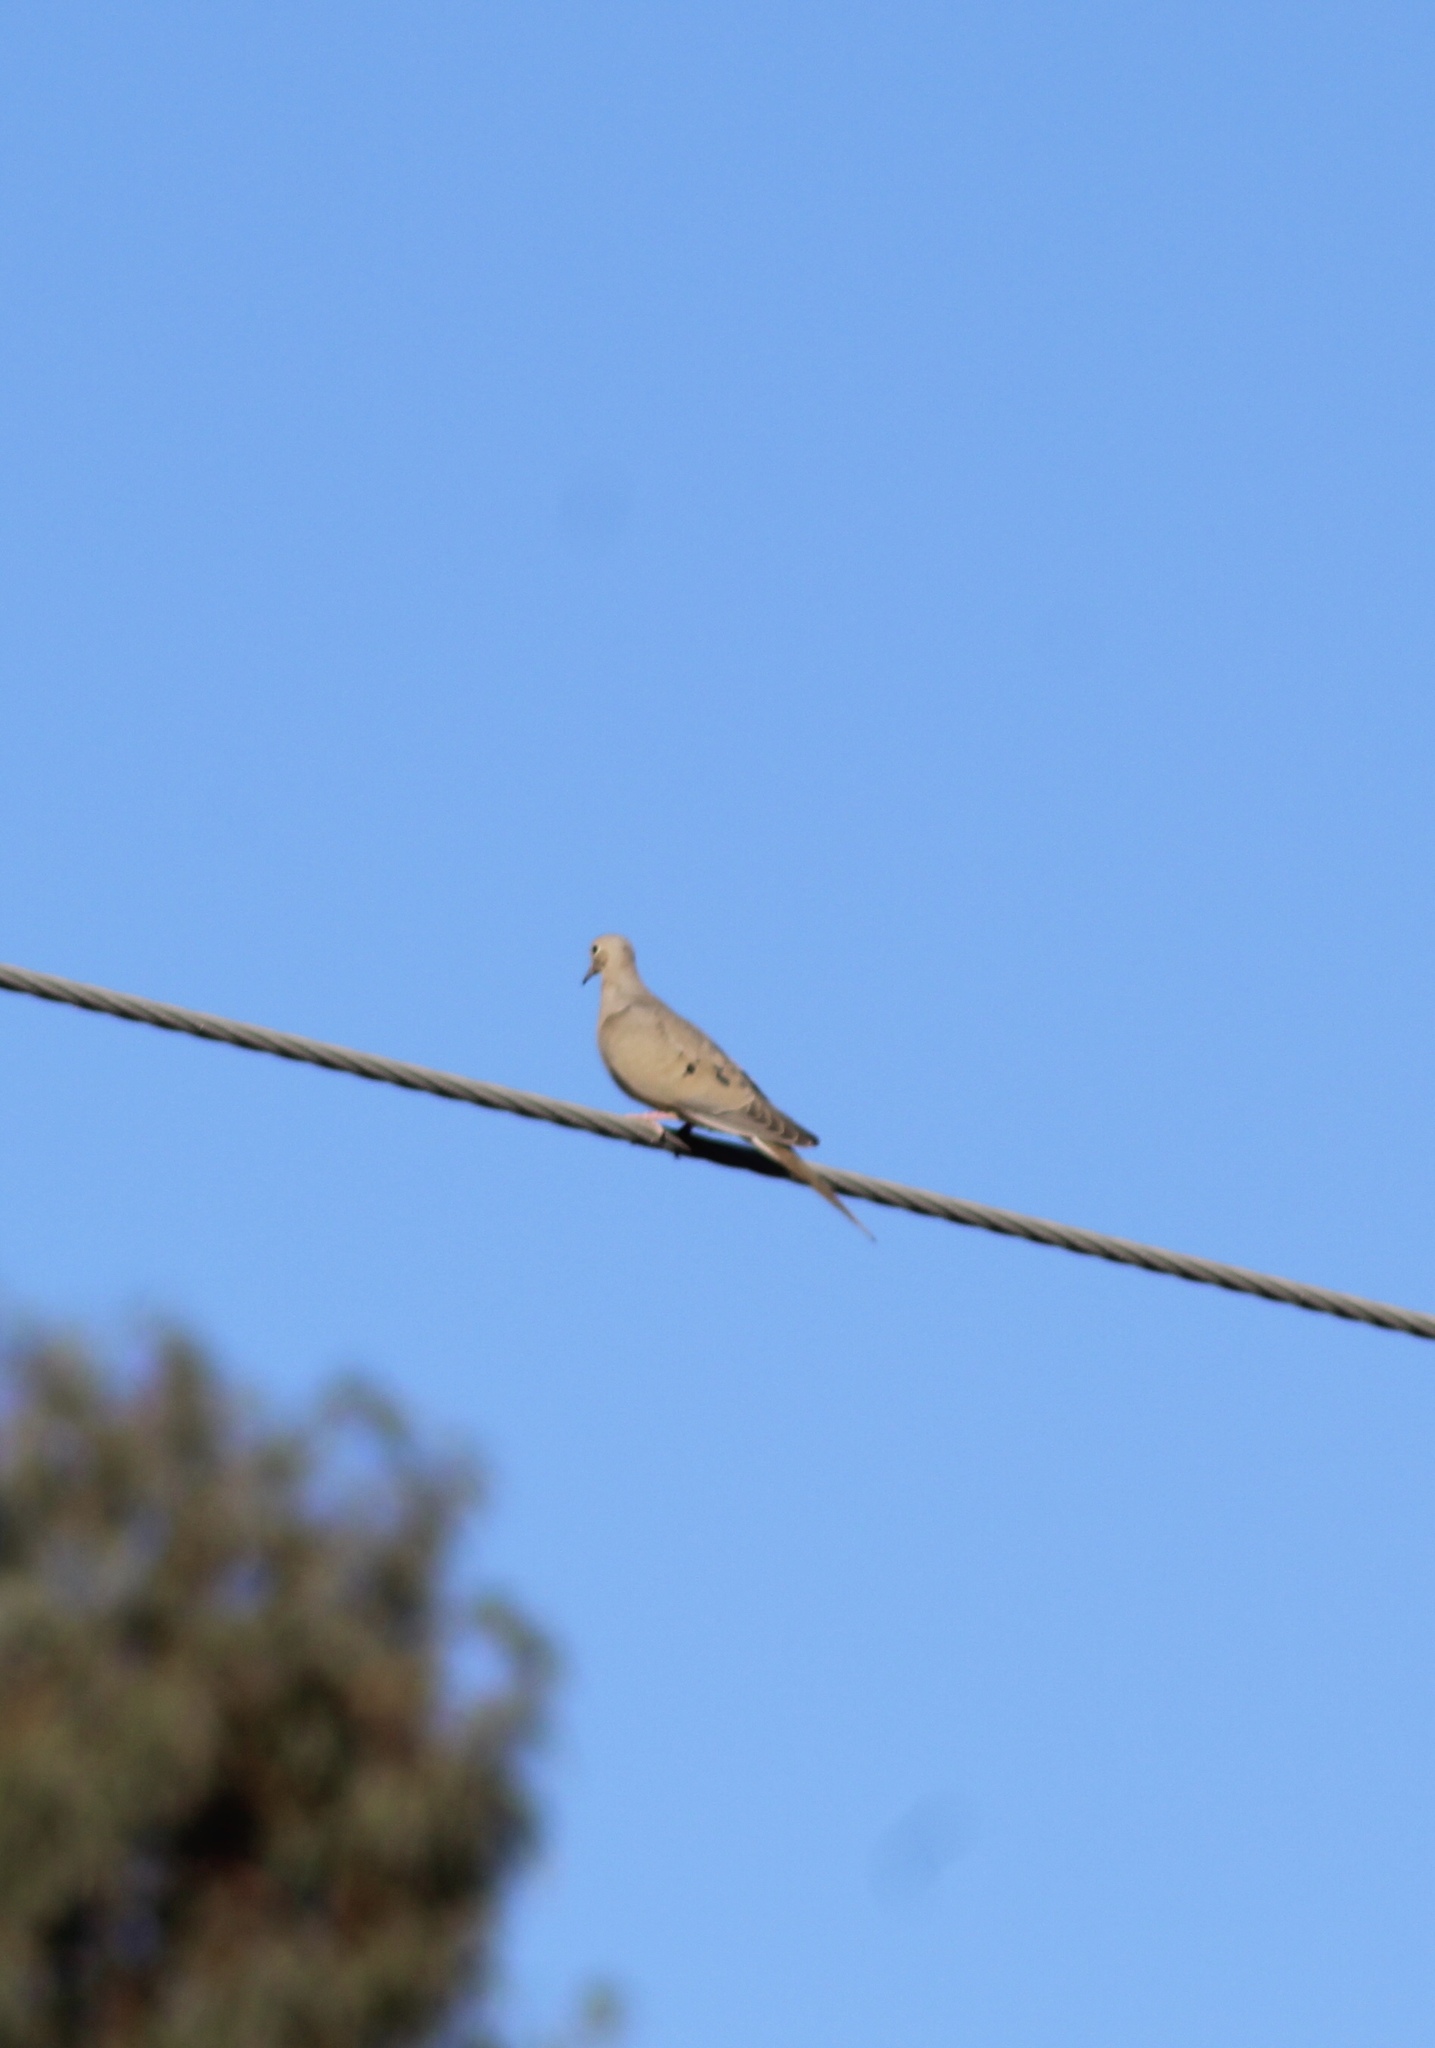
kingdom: Animalia
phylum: Chordata
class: Aves
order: Columbiformes
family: Columbidae
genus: Zenaida
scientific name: Zenaida macroura
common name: Mourning dove
